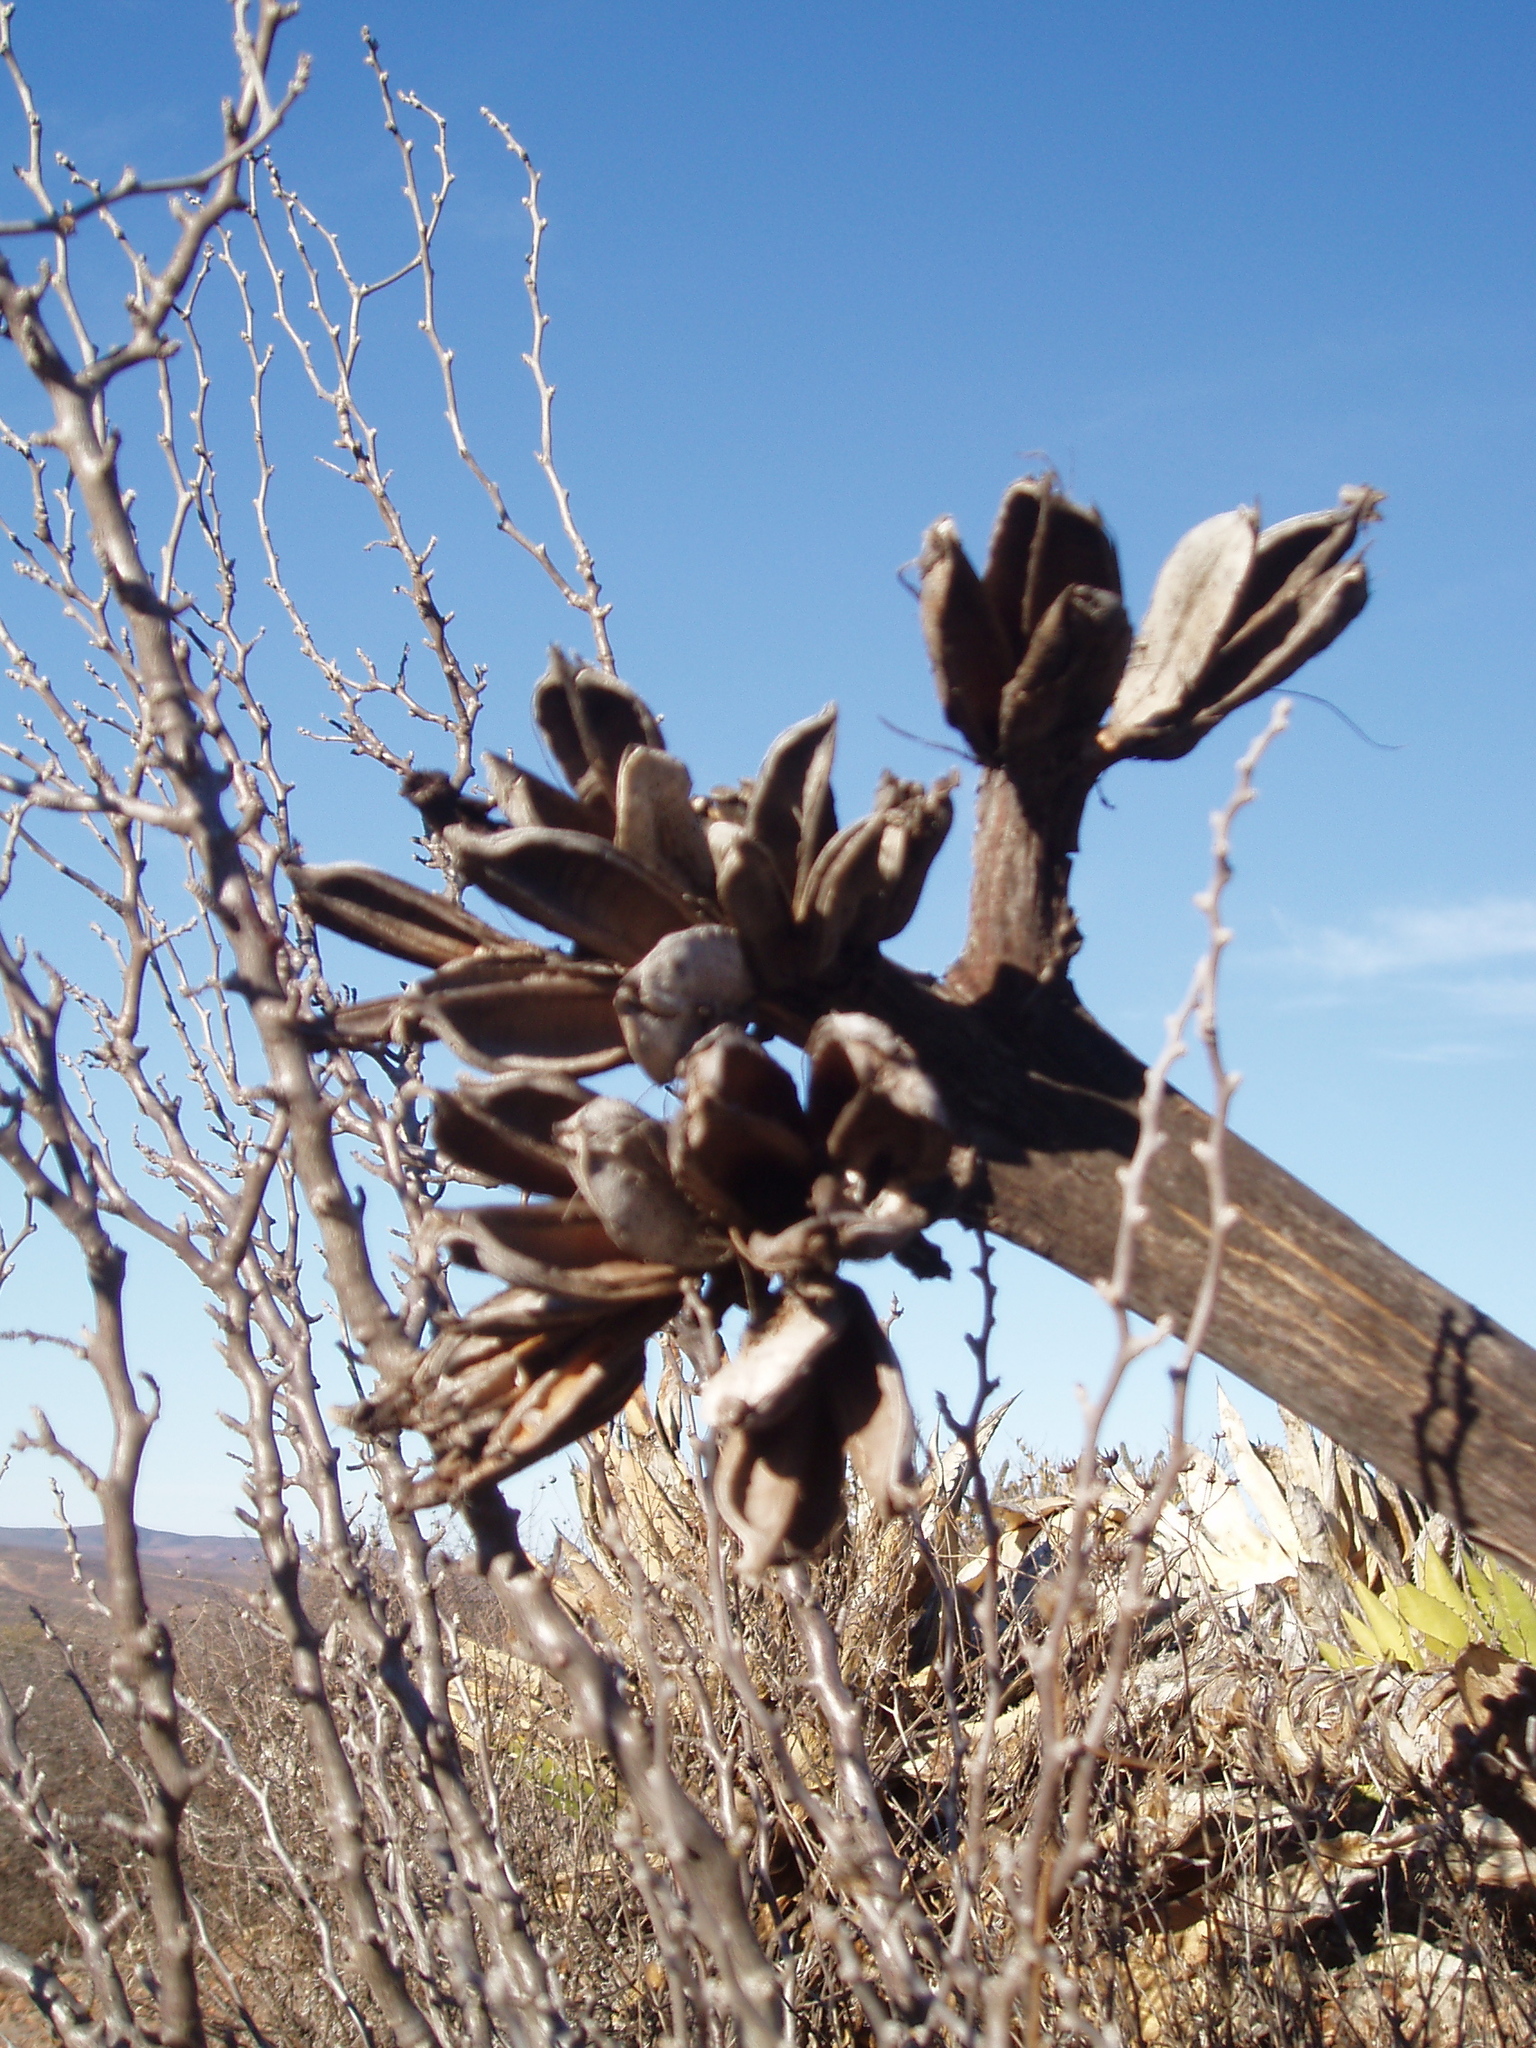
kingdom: Plantae
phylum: Tracheophyta
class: Liliopsida
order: Asparagales
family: Asparagaceae
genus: Agave
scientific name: Agave shawii
